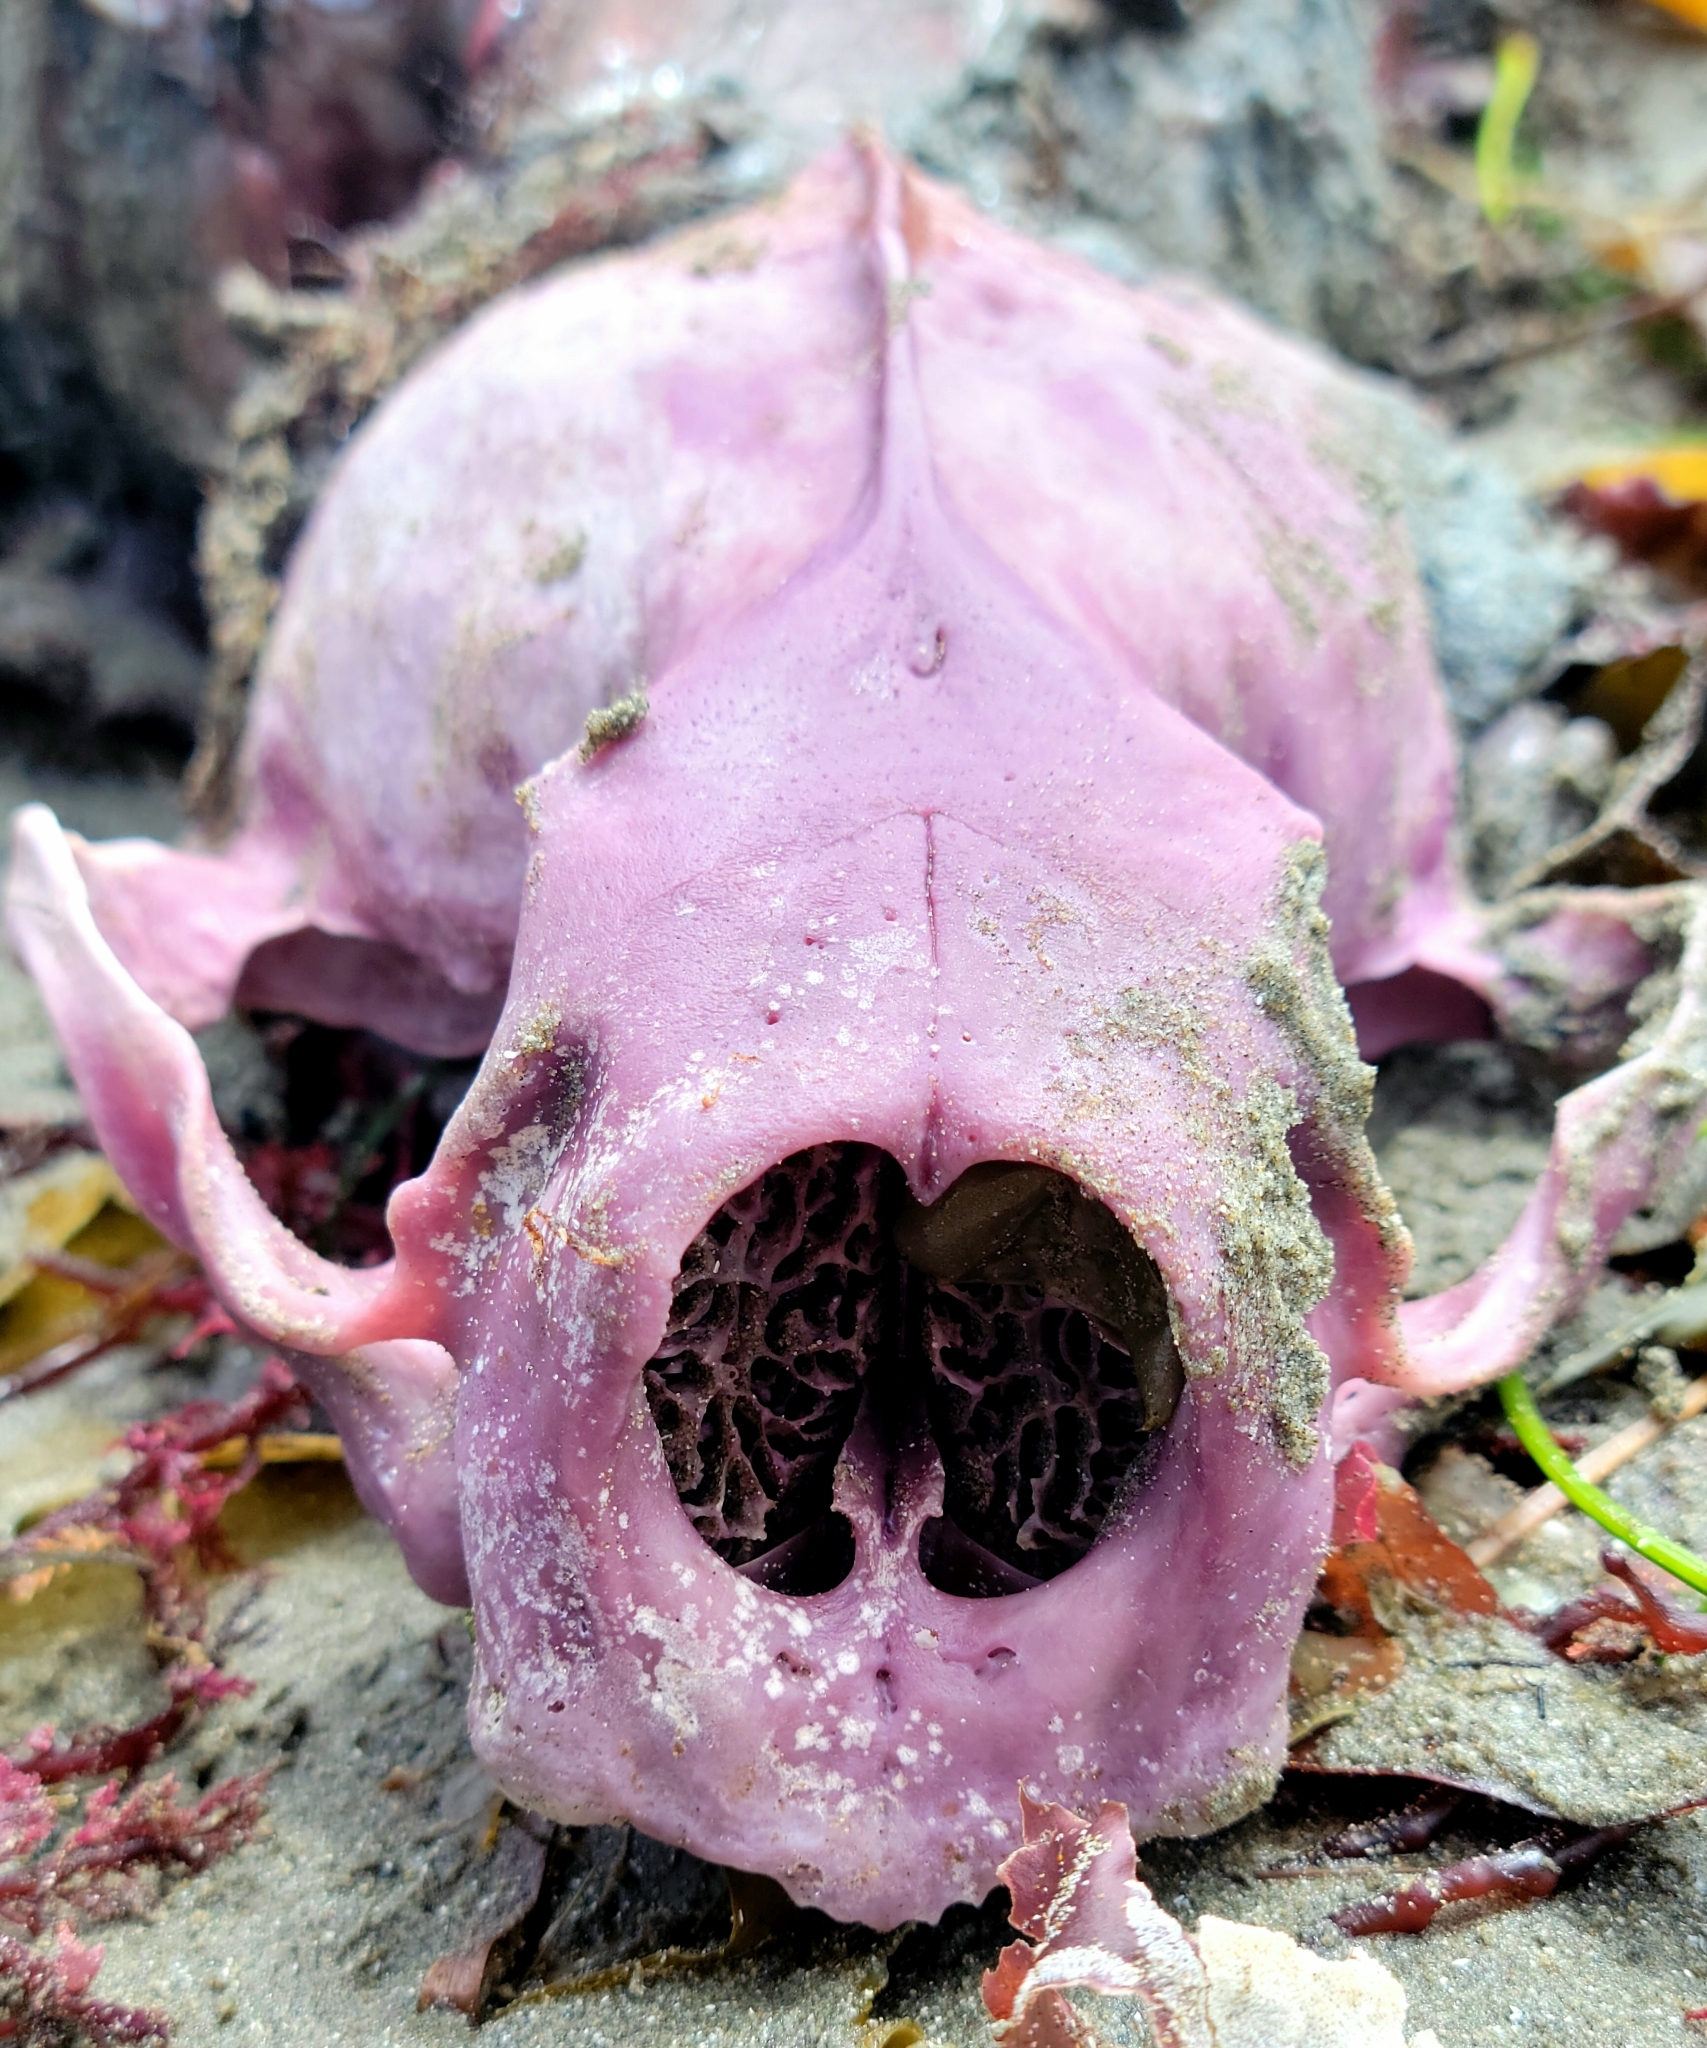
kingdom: Animalia
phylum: Chordata
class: Mammalia
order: Carnivora
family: Mustelidae
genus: Enhydra
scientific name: Enhydra lutris
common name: Sea otter
